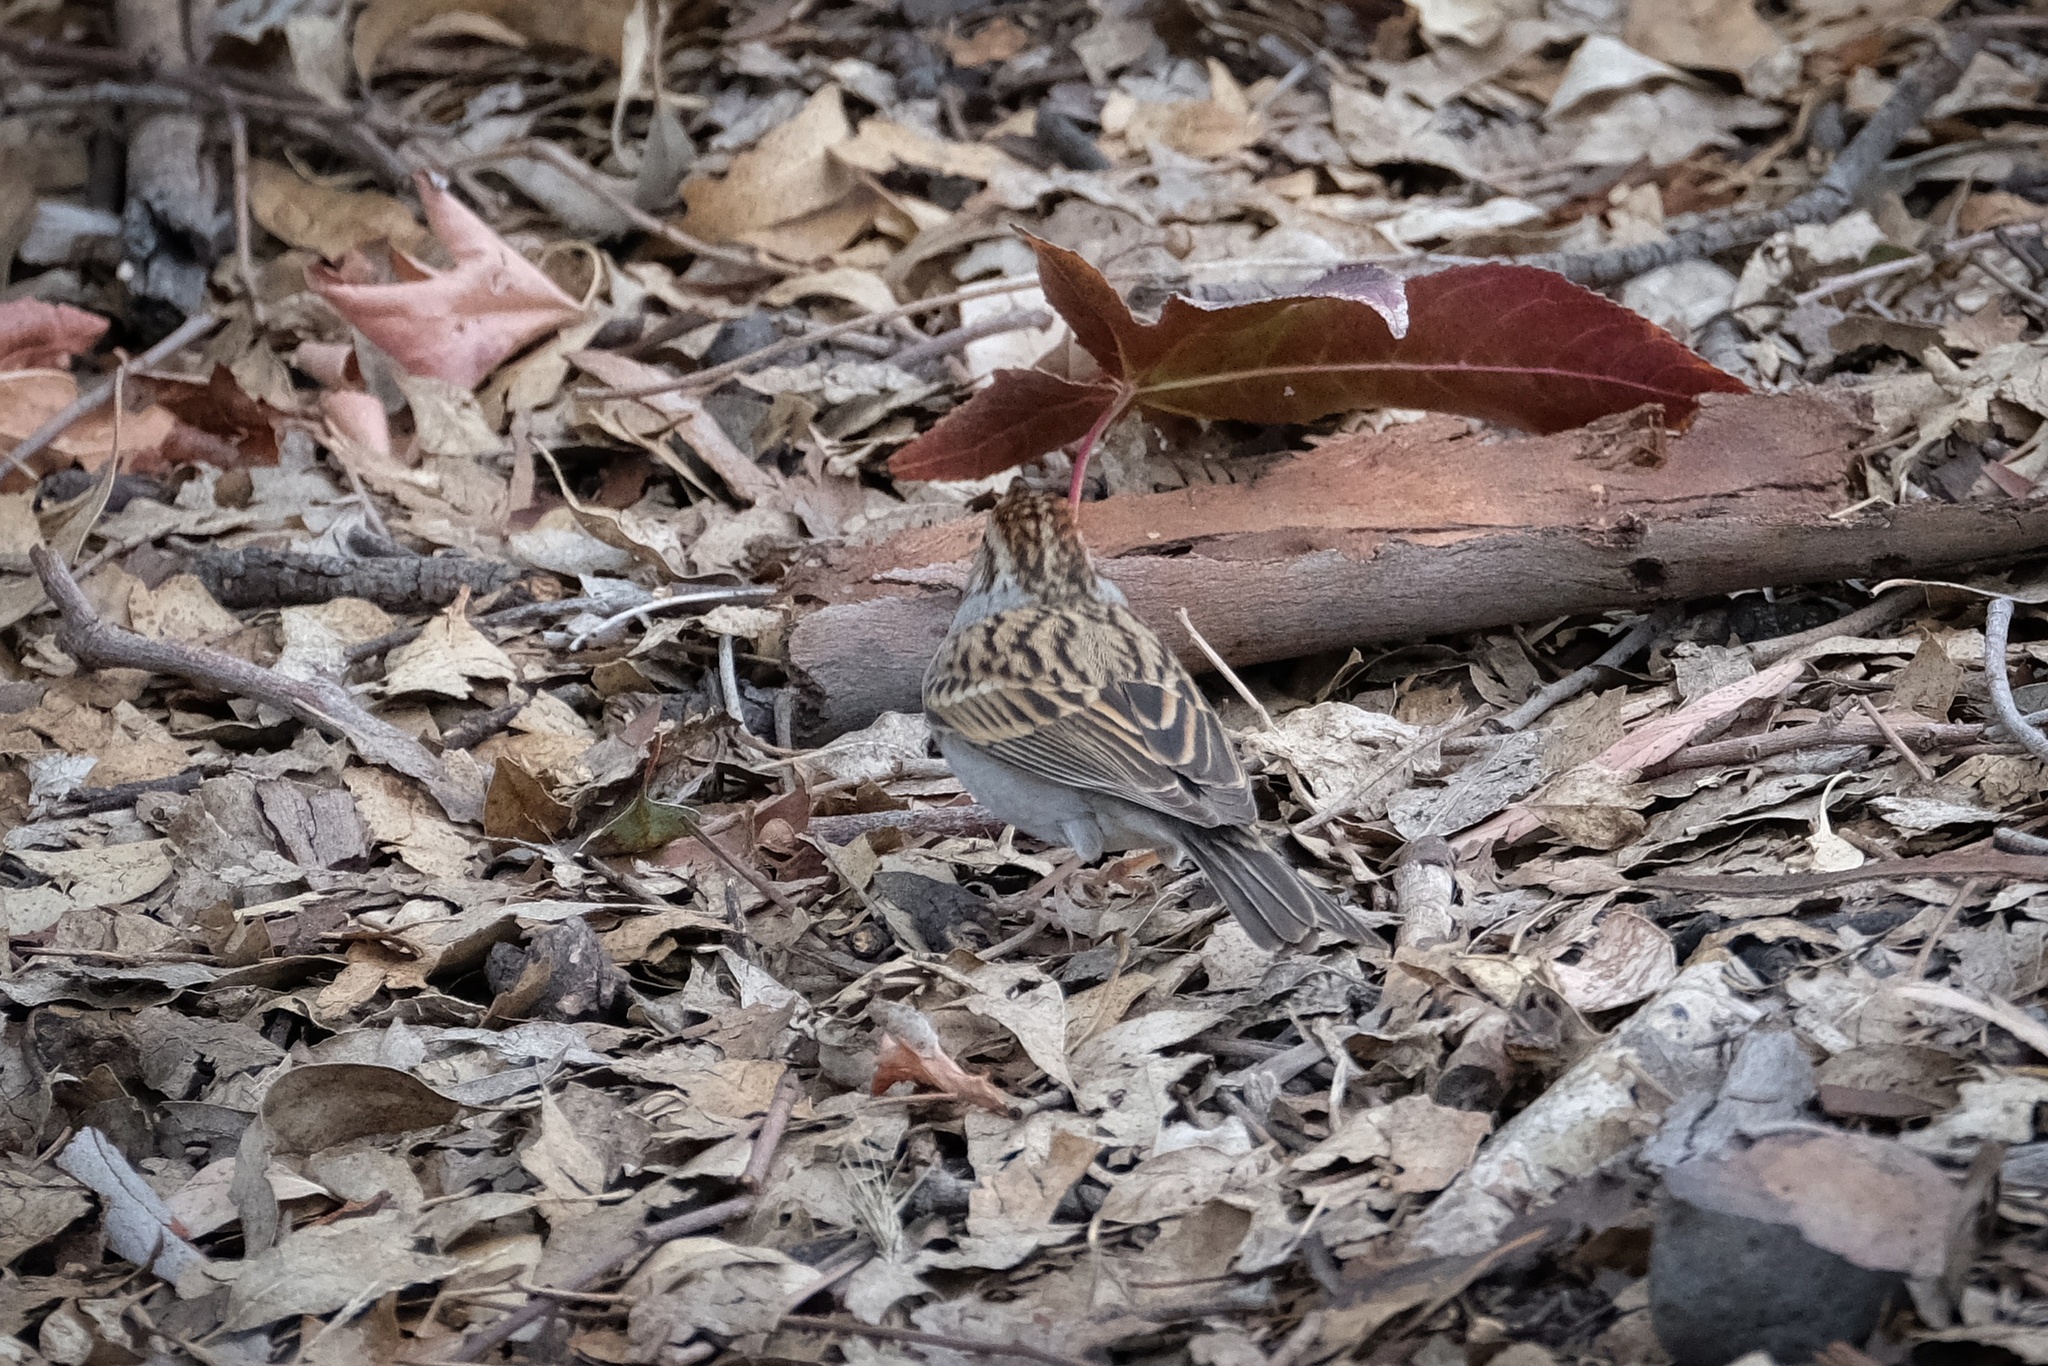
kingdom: Animalia
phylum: Chordata
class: Aves
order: Passeriformes
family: Passerellidae
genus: Spizella
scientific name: Spizella passerina
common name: Chipping sparrow
